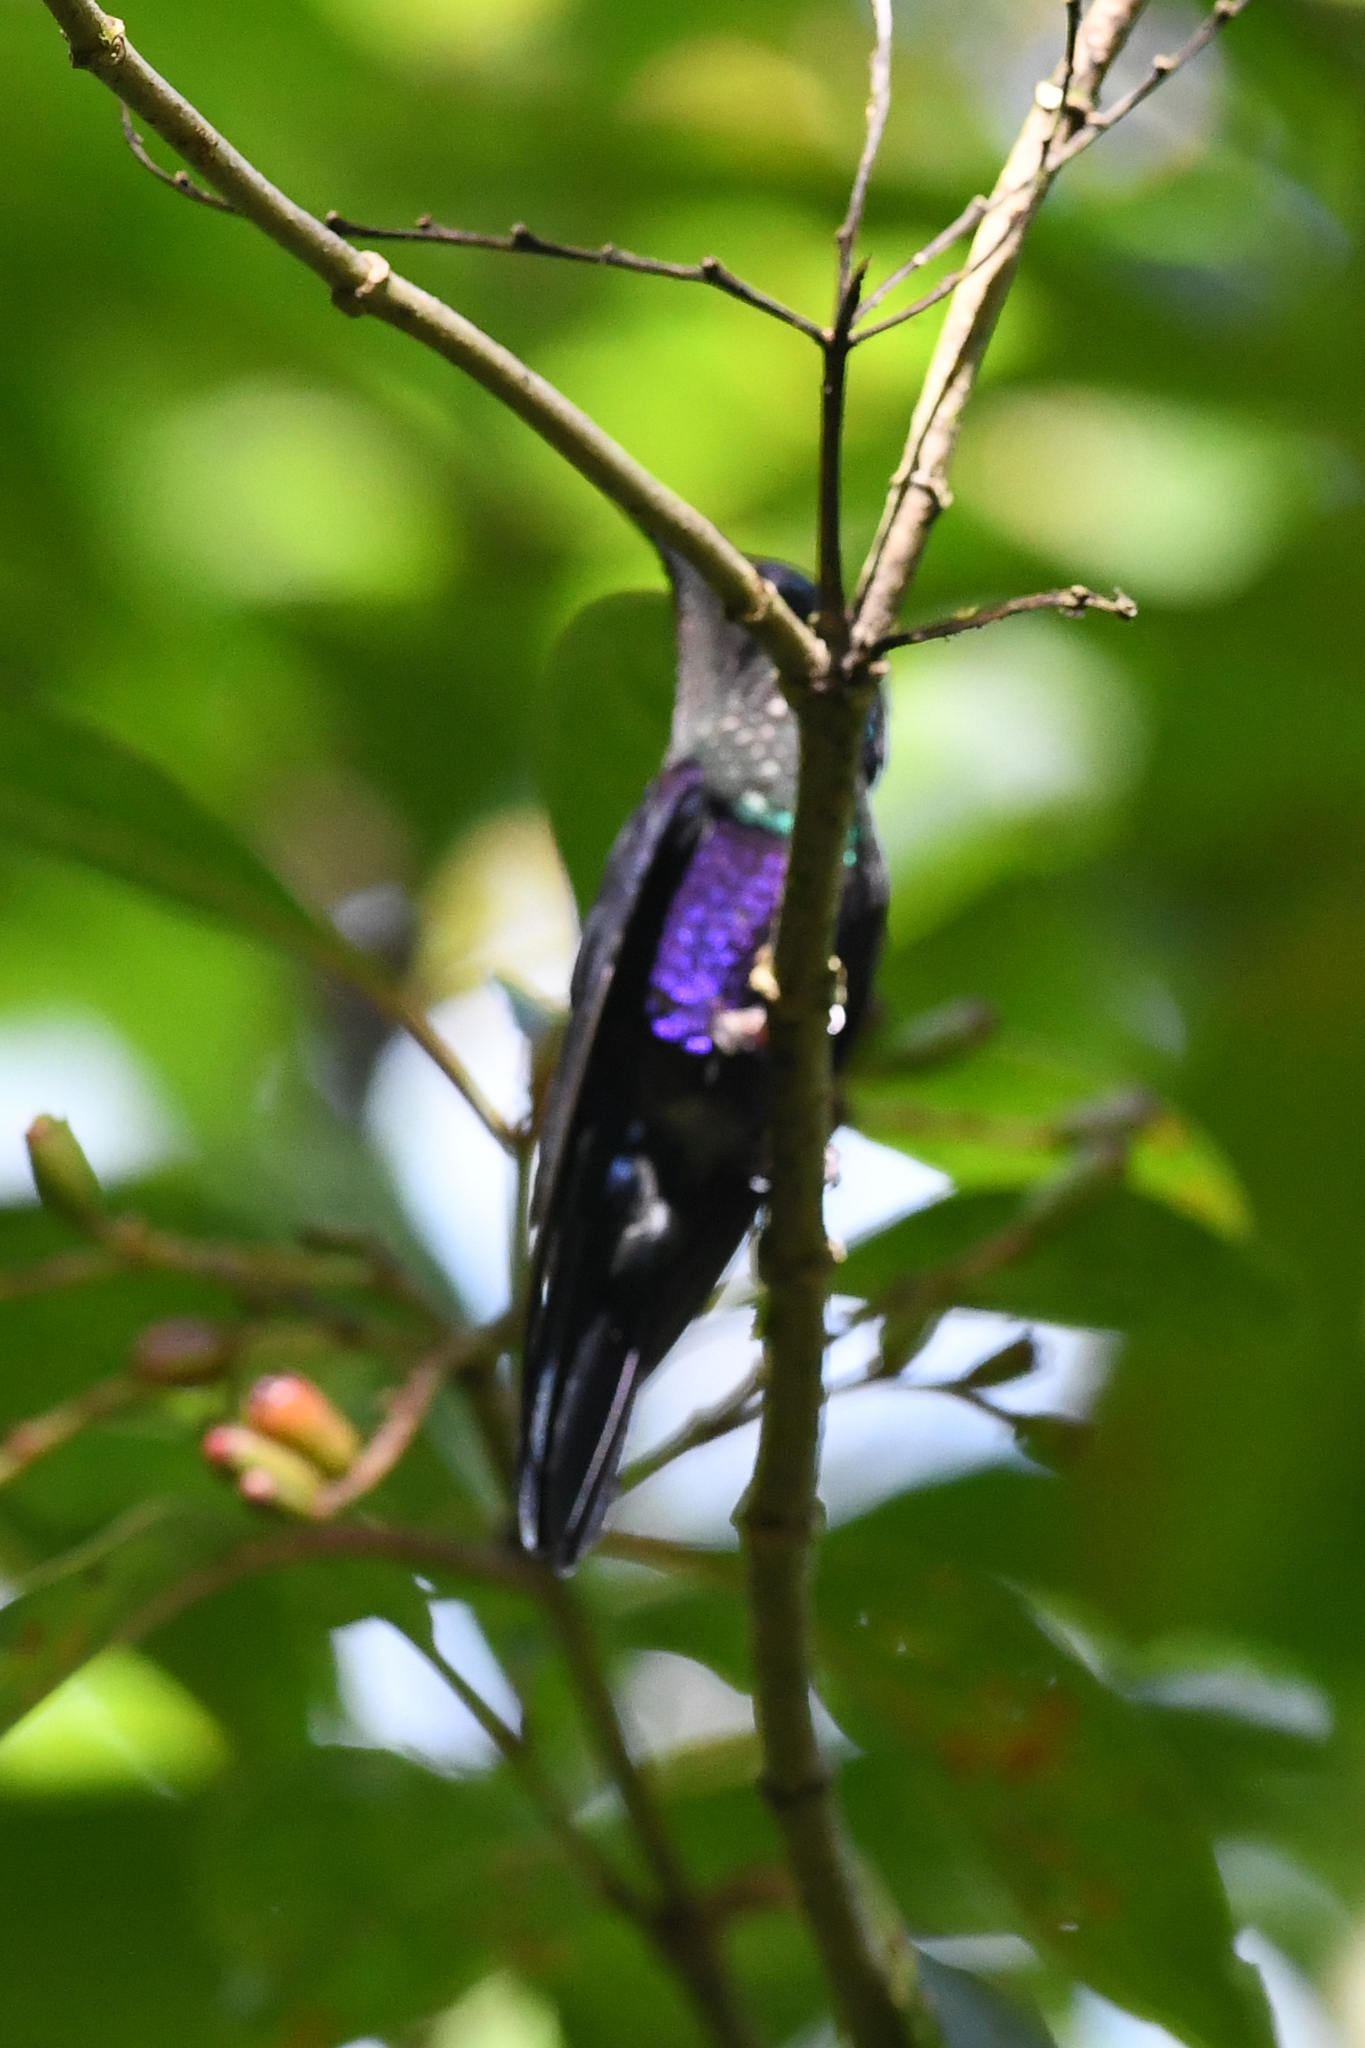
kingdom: Animalia
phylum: Chordata
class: Aves
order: Apodiformes
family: Trochilidae
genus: Thalurania
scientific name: Thalurania colombica
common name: Crowned woodnymph
